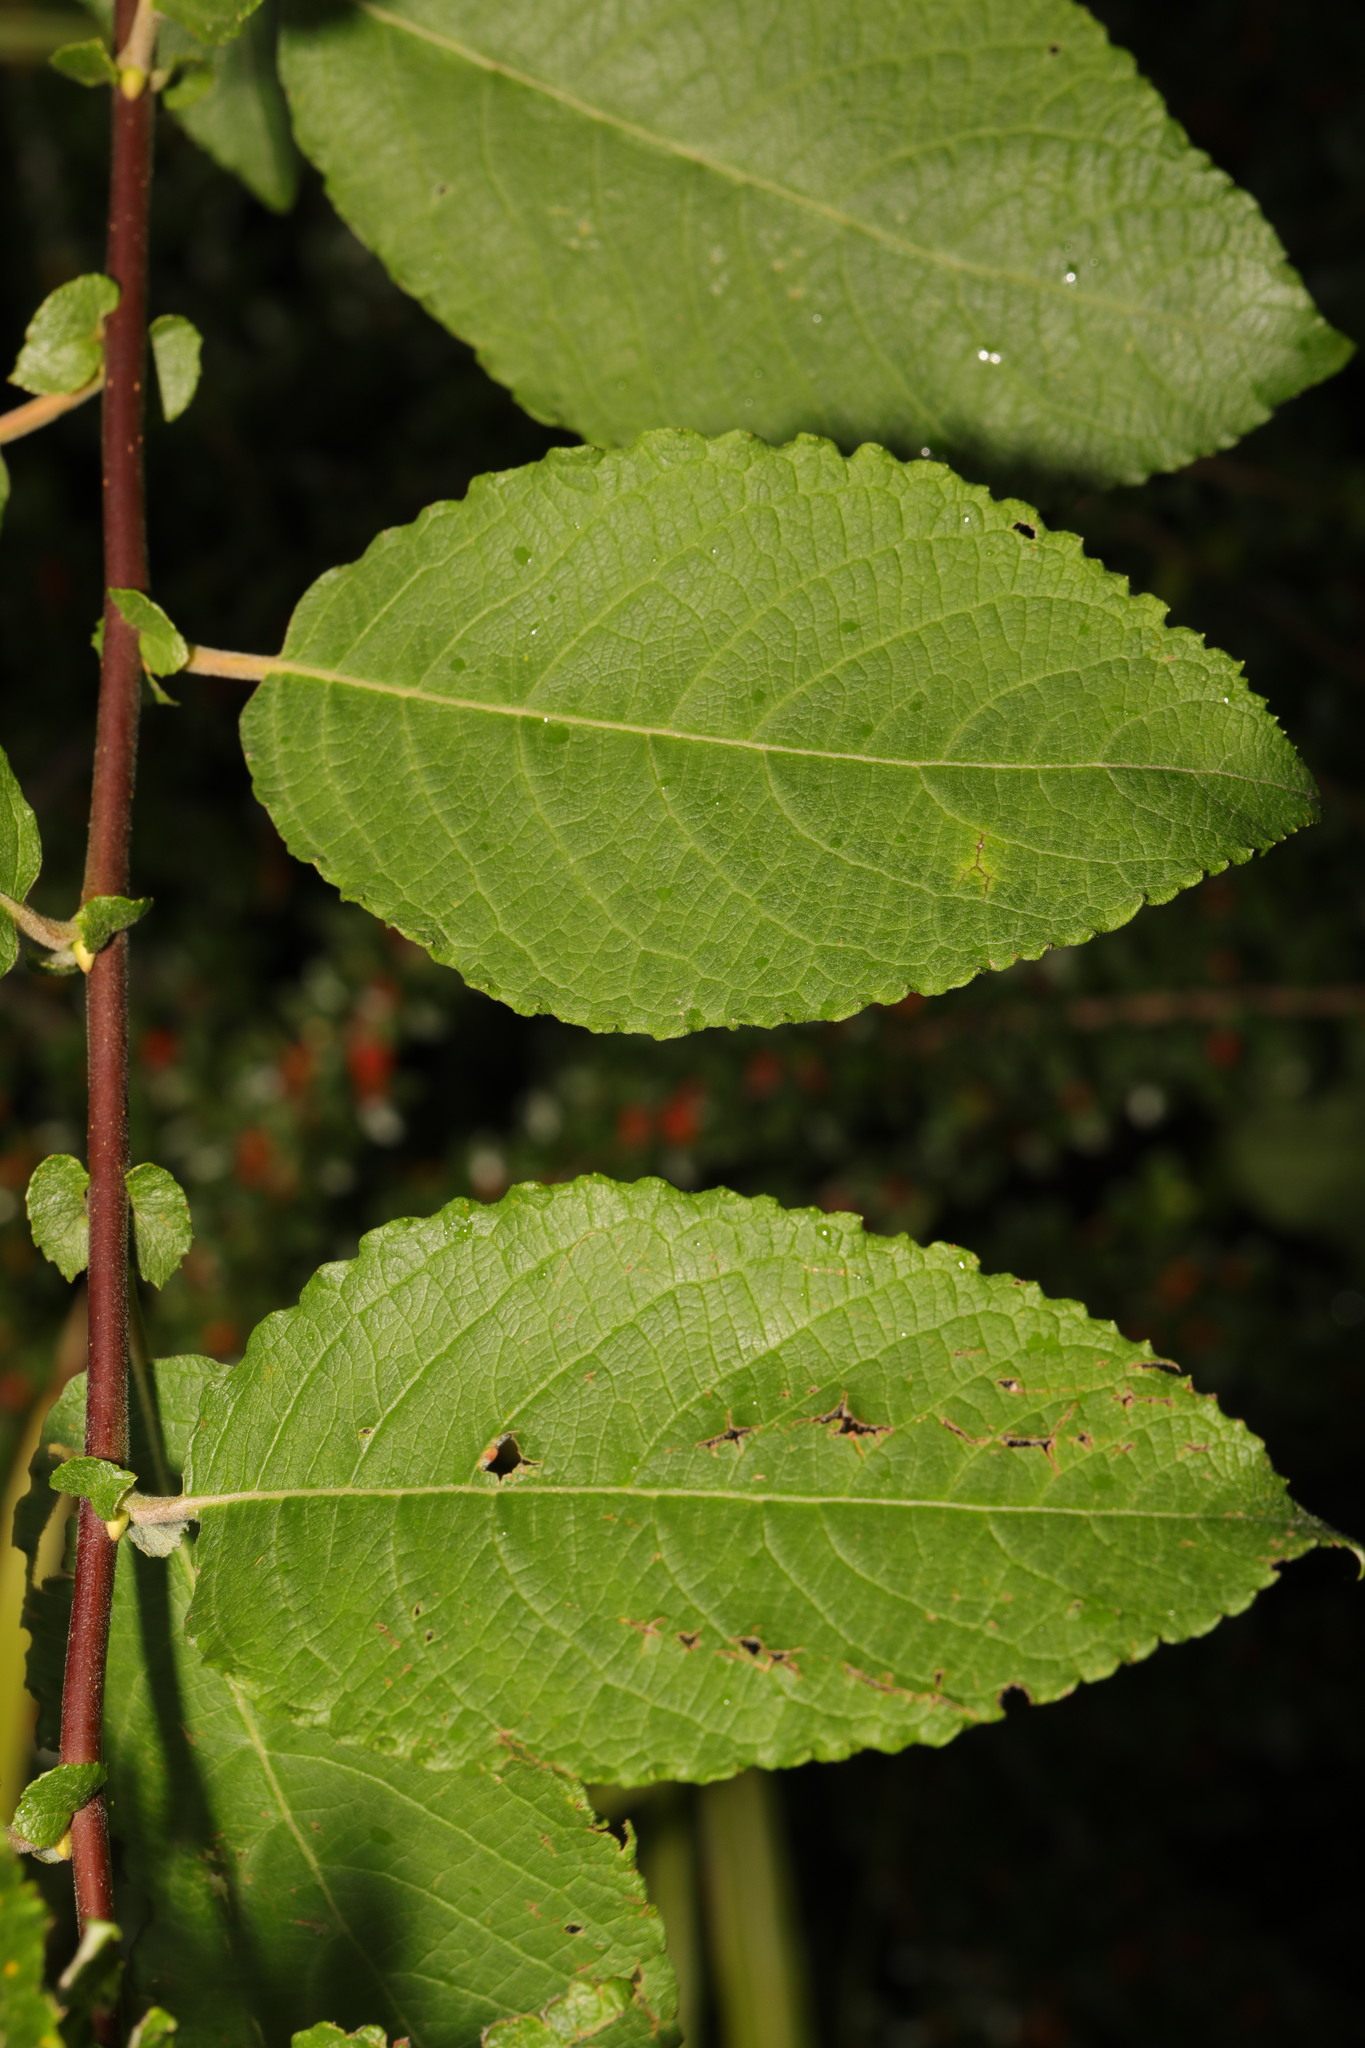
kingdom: Plantae
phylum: Tracheophyta
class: Magnoliopsida
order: Malpighiales
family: Salicaceae
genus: Salix
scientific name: Salix caprea
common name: Goat willow
